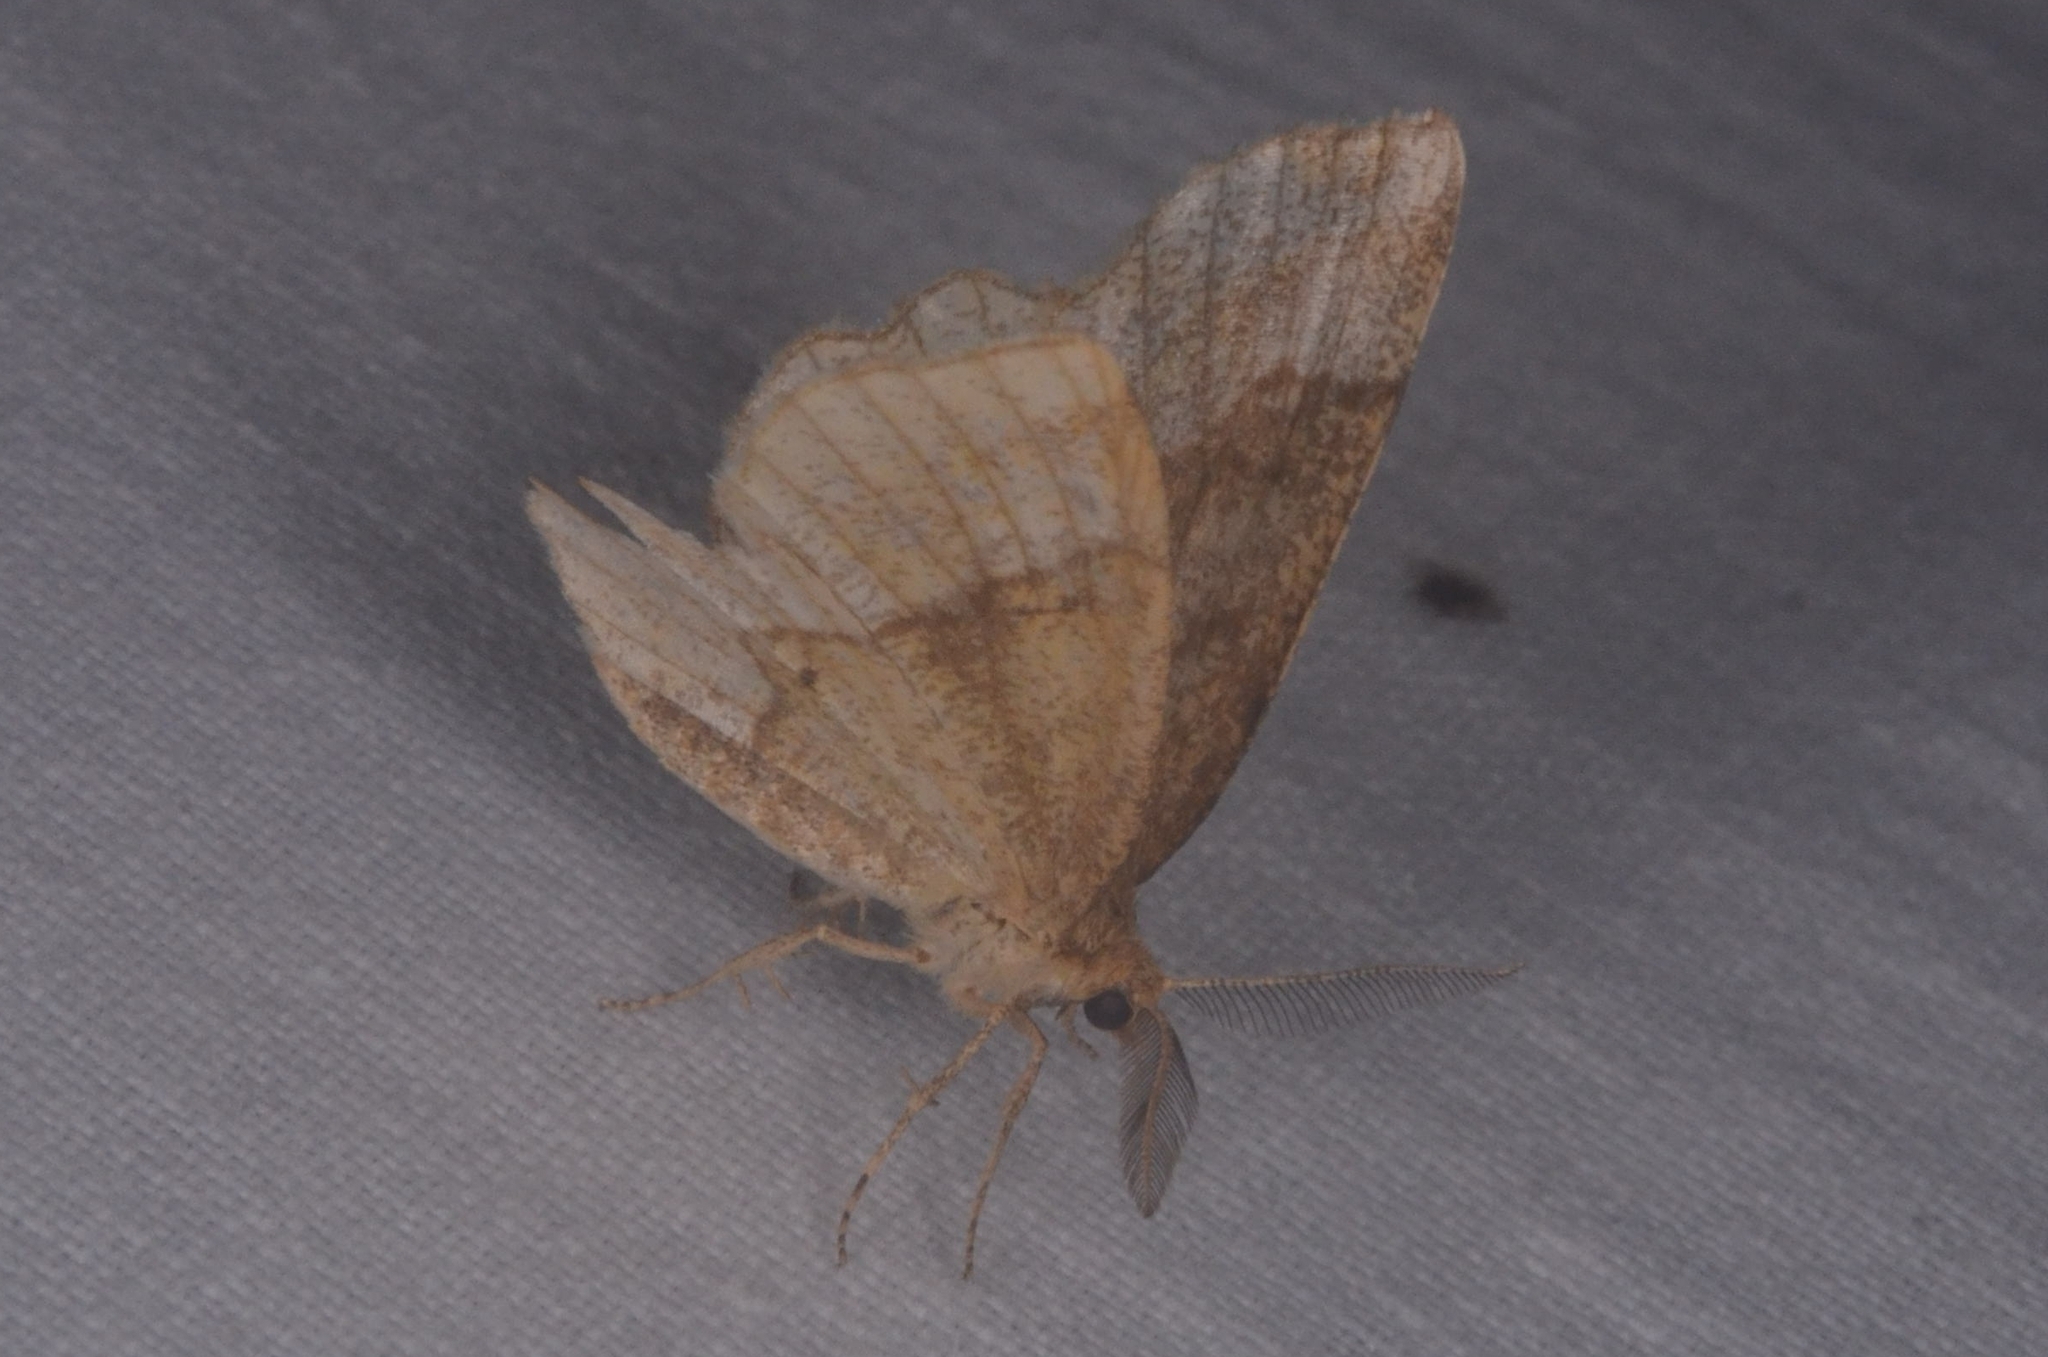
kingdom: Animalia
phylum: Arthropoda
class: Insecta
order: Lepidoptera
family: Geometridae
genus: Cepphis
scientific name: Cepphis advenaria
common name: Little thorn
